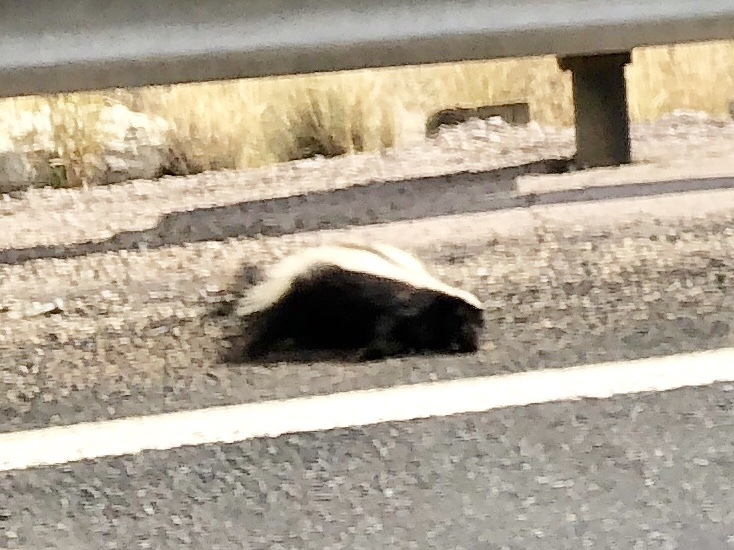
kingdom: Animalia
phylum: Chordata
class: Mammalia
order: Carnivora
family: Mephitidae
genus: Mephitis
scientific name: Mephitis mephitis
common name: Striped skunk
